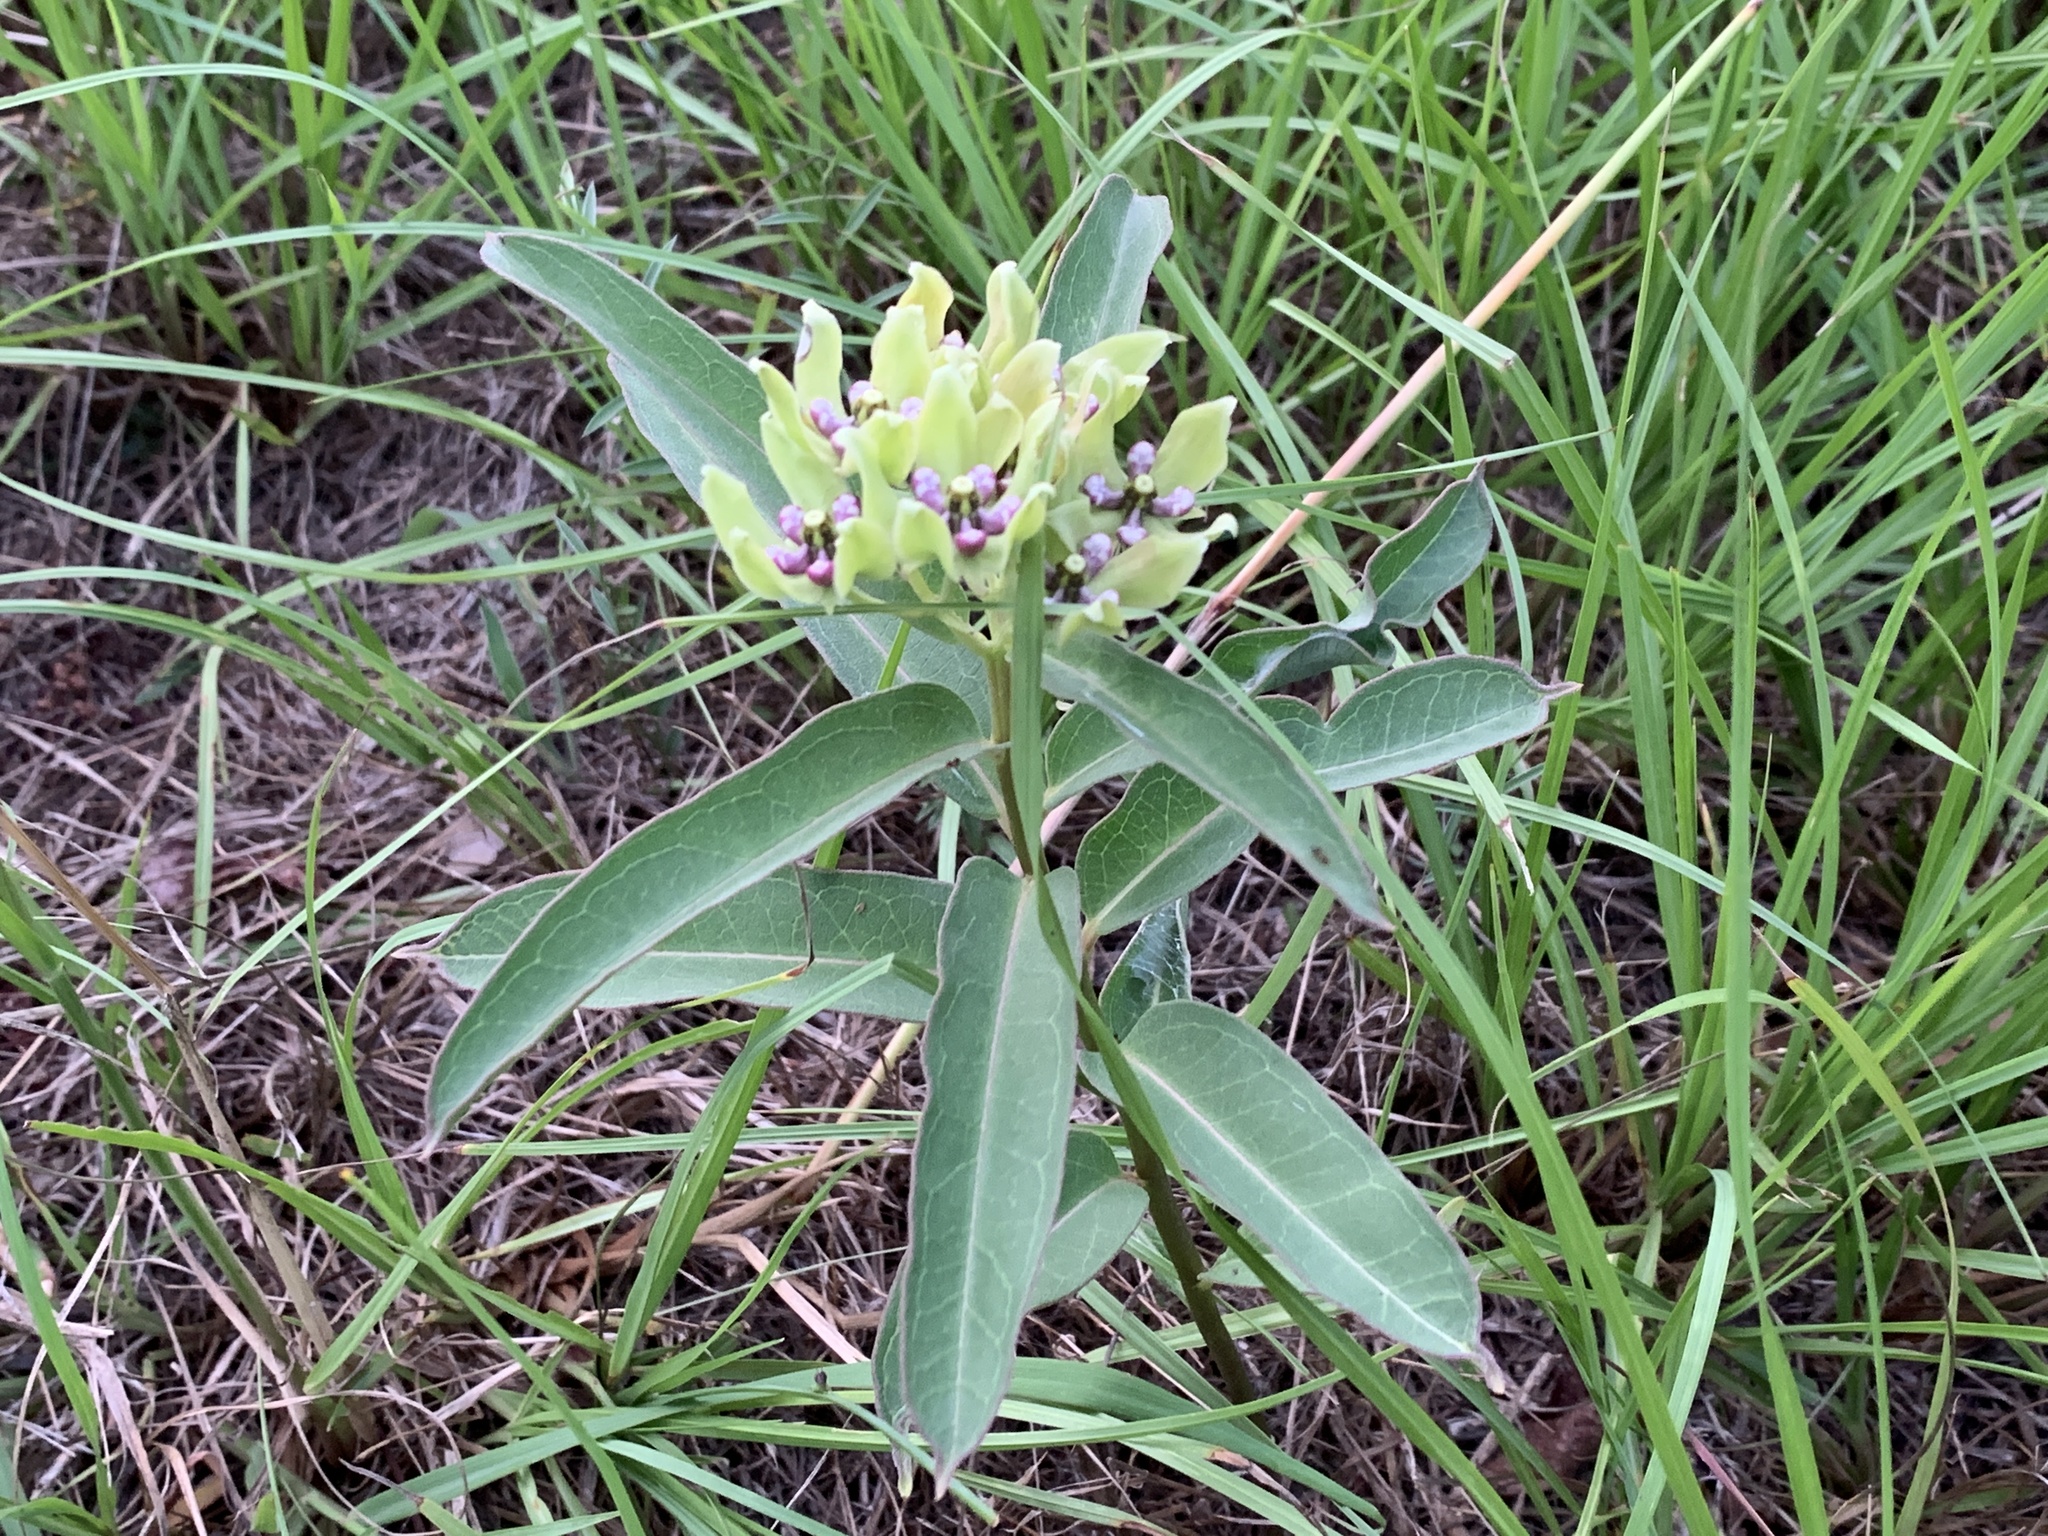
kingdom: Plantae
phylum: Tracheophyta
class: Magnoliopsida
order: Gentianales
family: Apocynaceae
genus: Asclepias
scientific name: Asclepias viridis
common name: Antelope-horns
